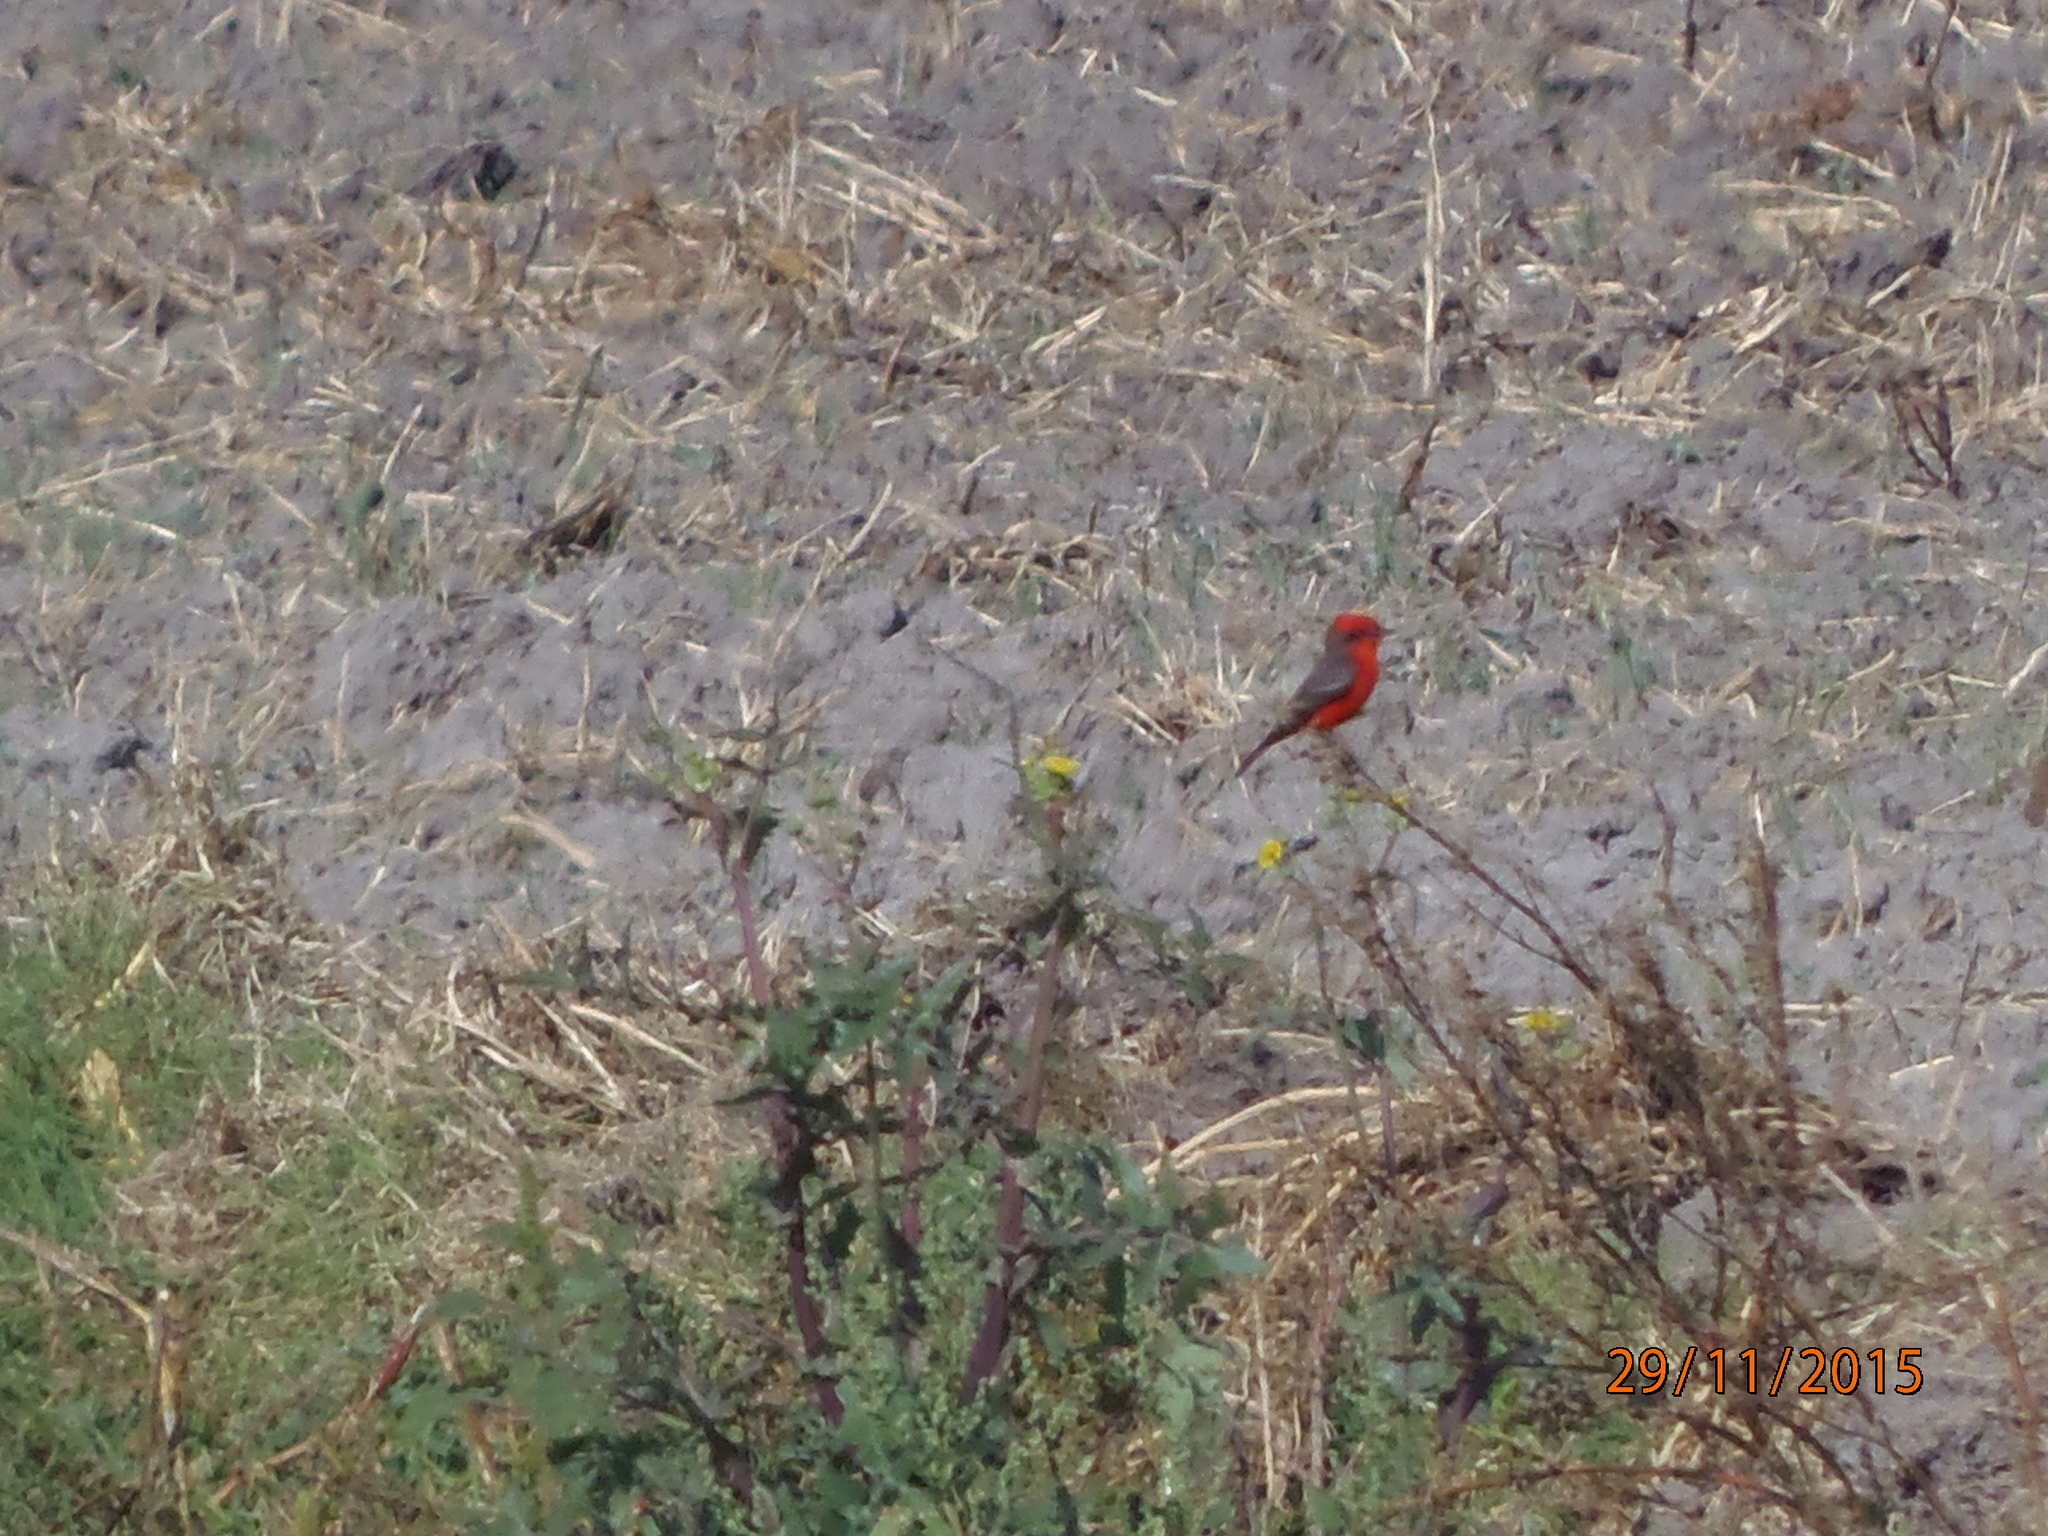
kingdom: Animalia
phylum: Chordata
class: Aves
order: Passeriformes
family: Tyrannidae
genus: Pyrocephalus
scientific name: Pyrocephalus rubinus
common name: Vermilion flycatcher
